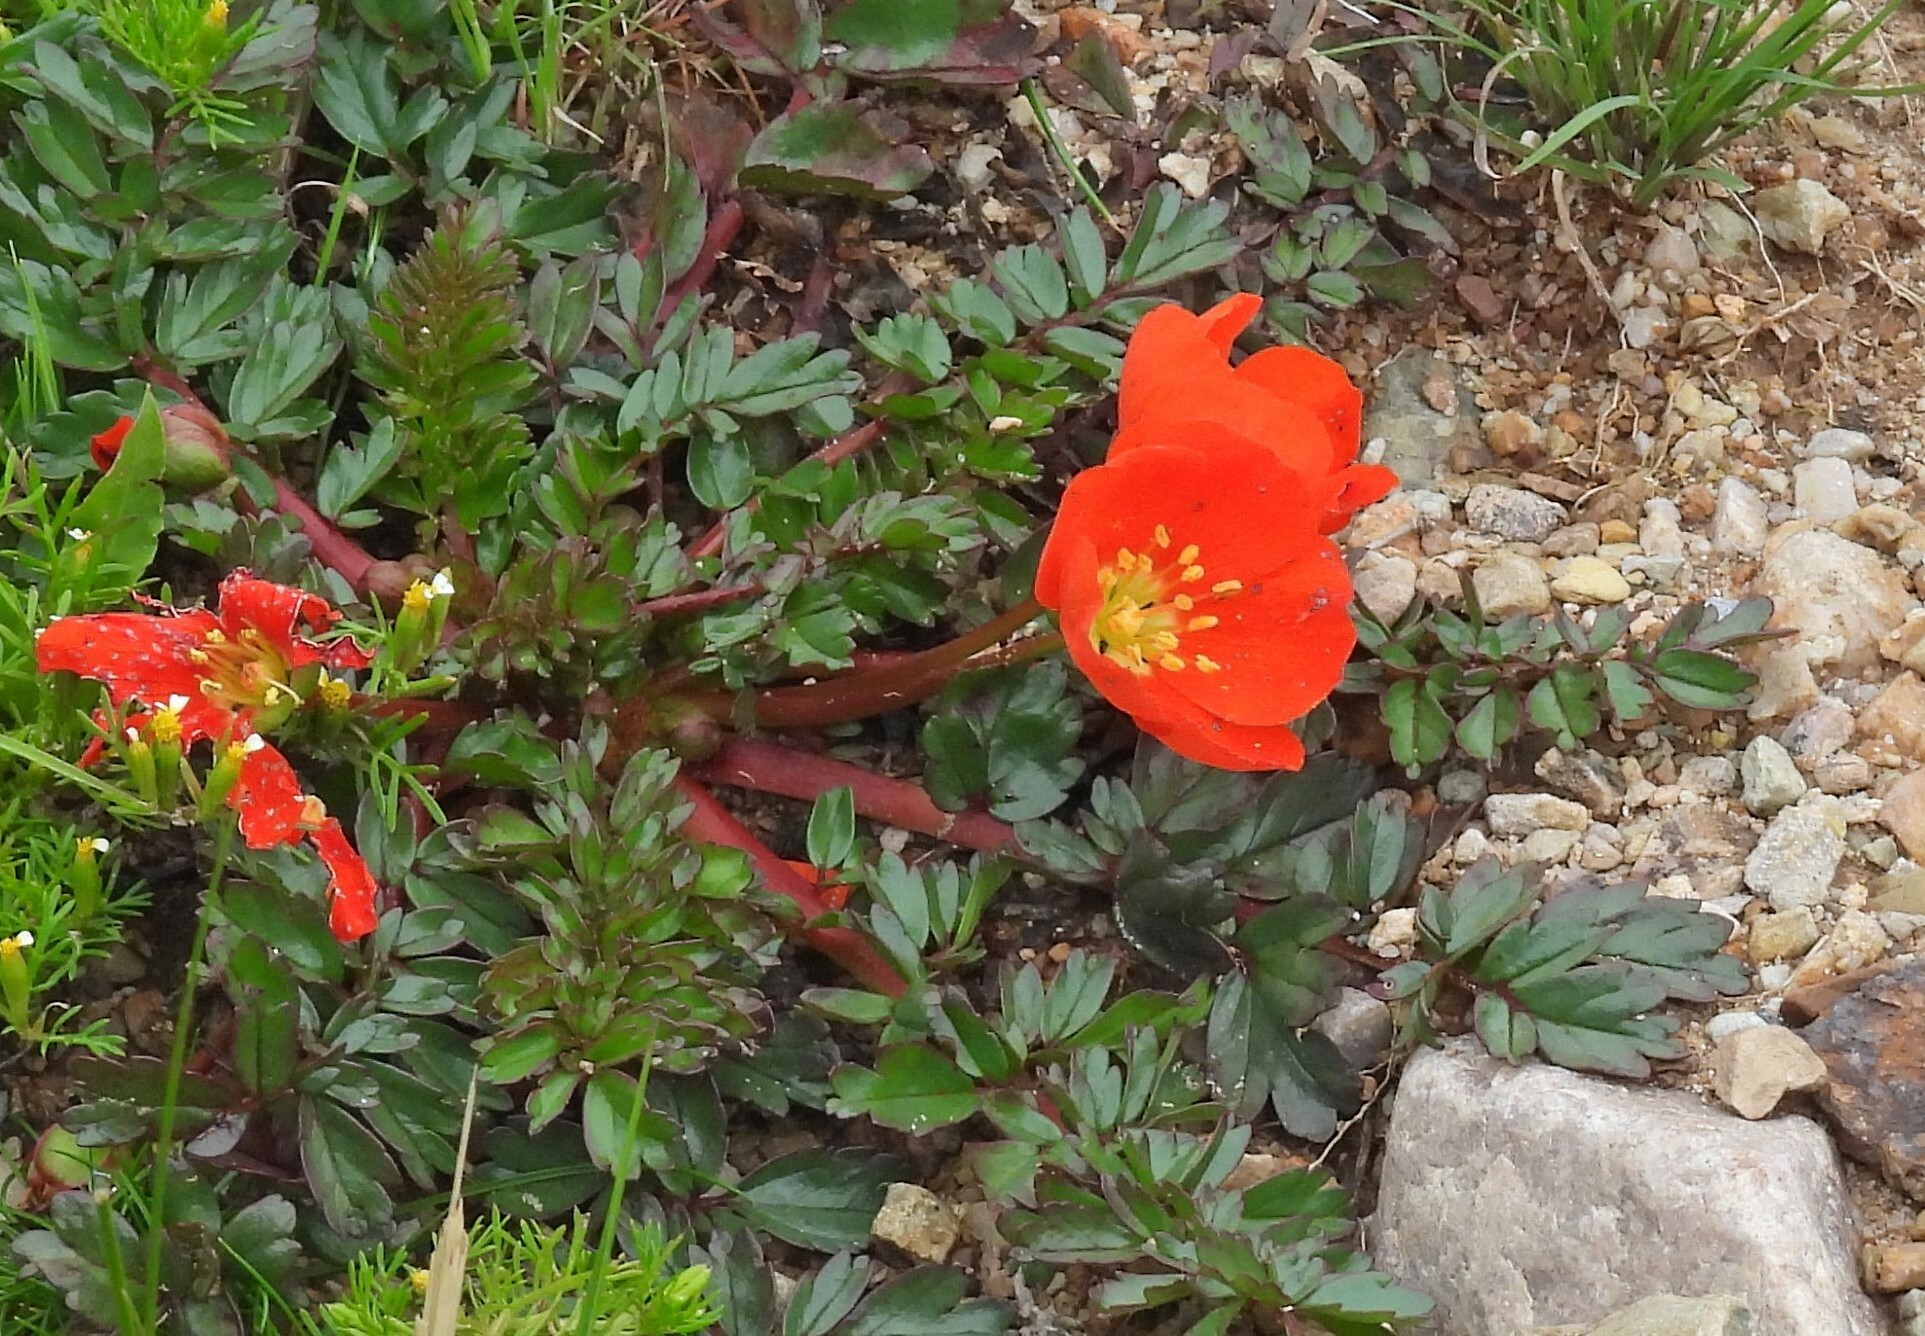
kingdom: Plantae
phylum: Tracheophyta
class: Magnoliopsida
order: Geraniales
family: Hypseocharitaceae
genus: Hypseocharis
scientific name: Hypseocharis pimpinellifolia
